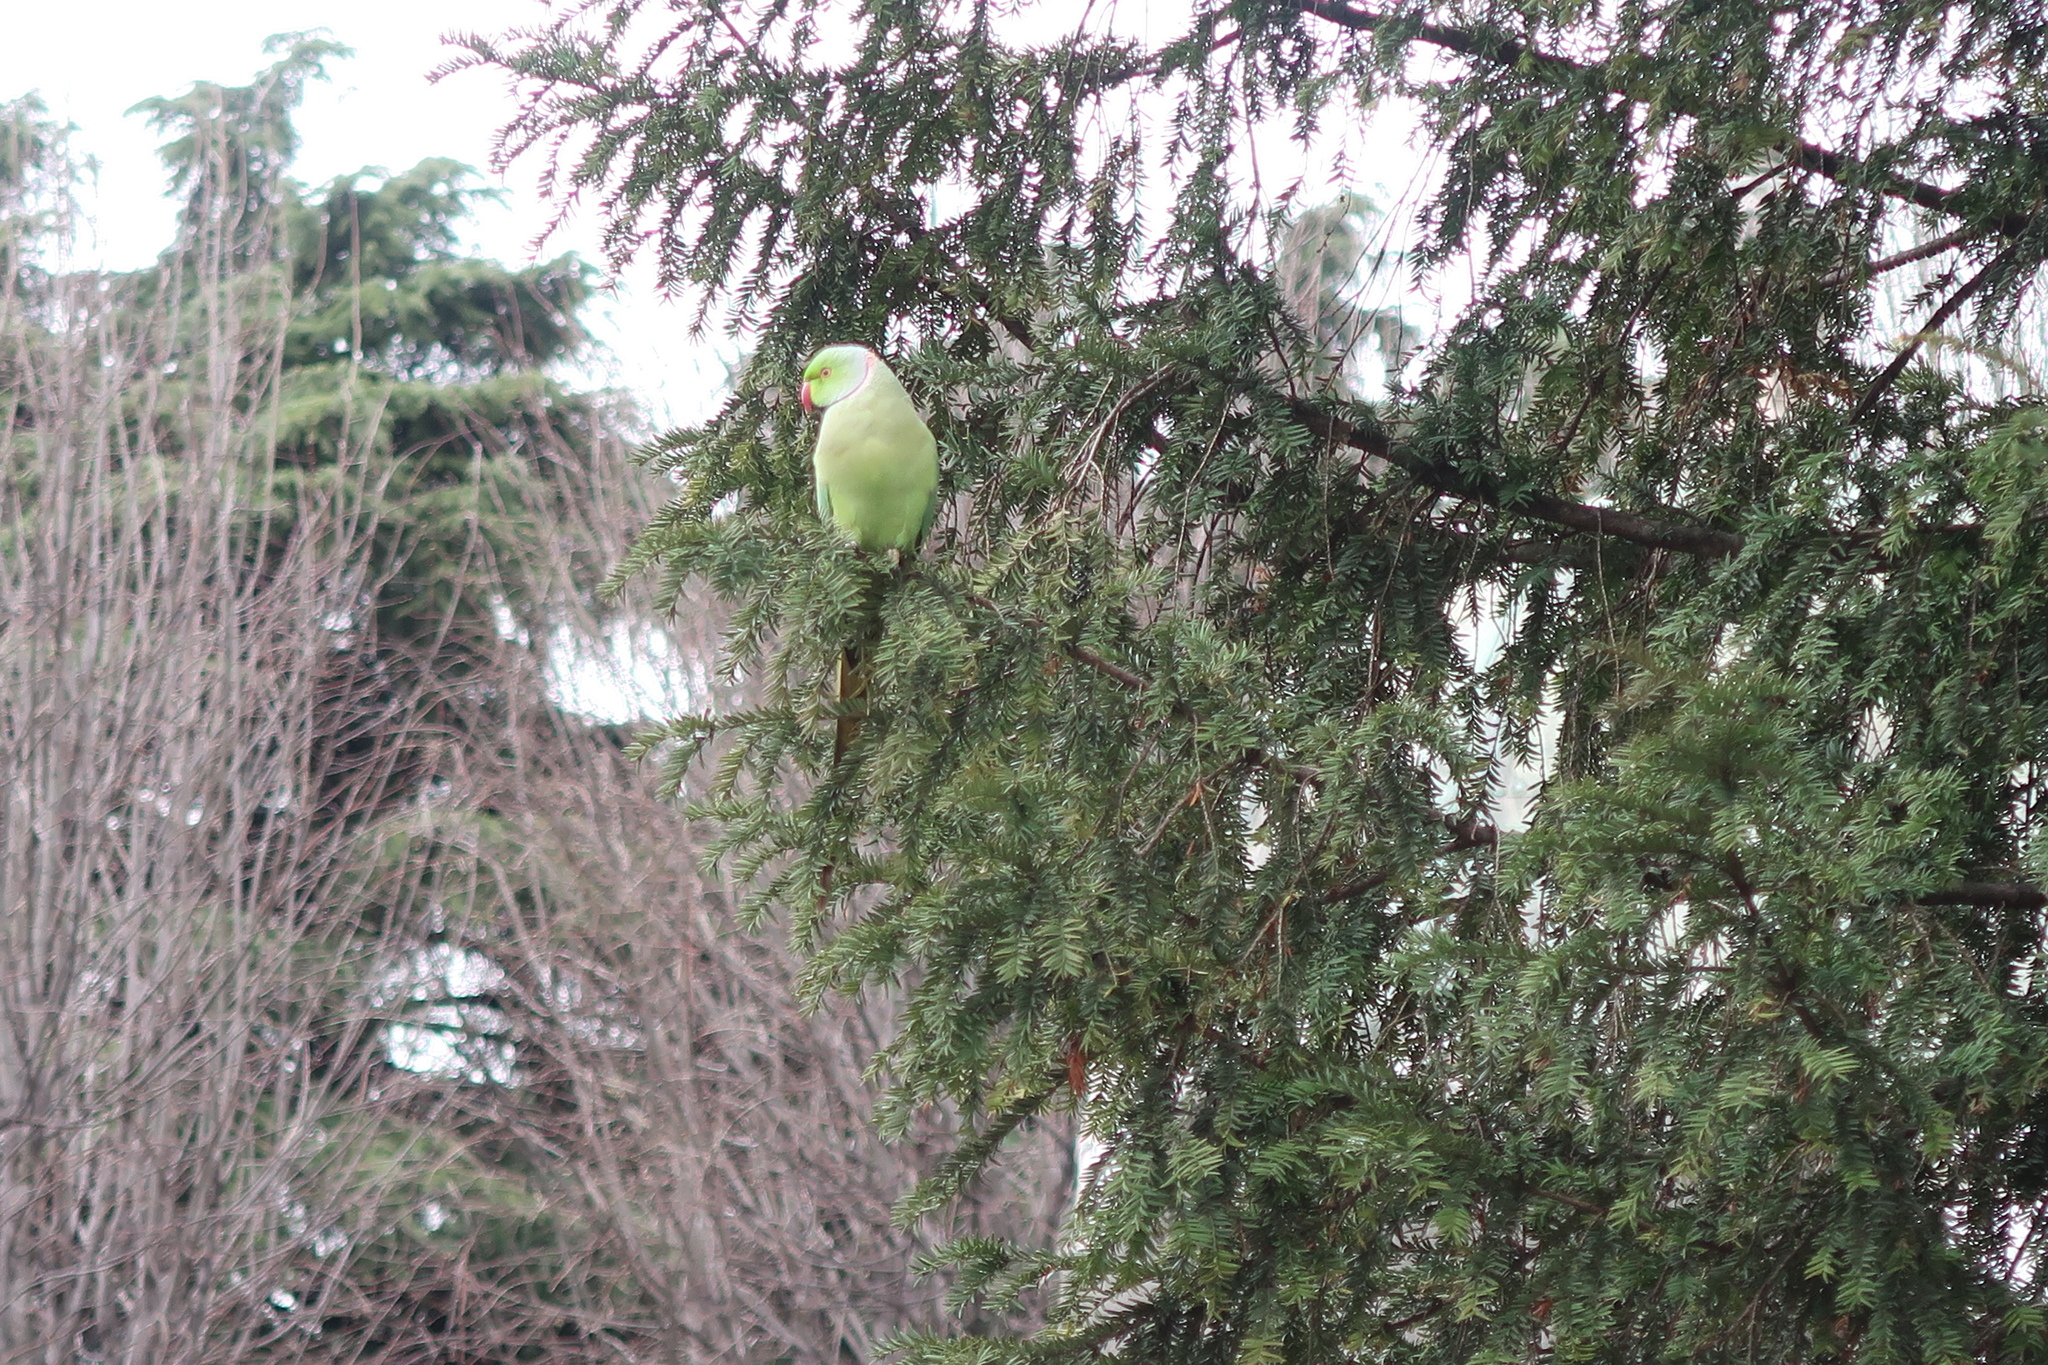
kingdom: Animalia
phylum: Chordata
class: Aves
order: Psittaciformes
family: Psittacidae
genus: Psittacula
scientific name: Psittacula krameri
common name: Rose-ringed parakeet
